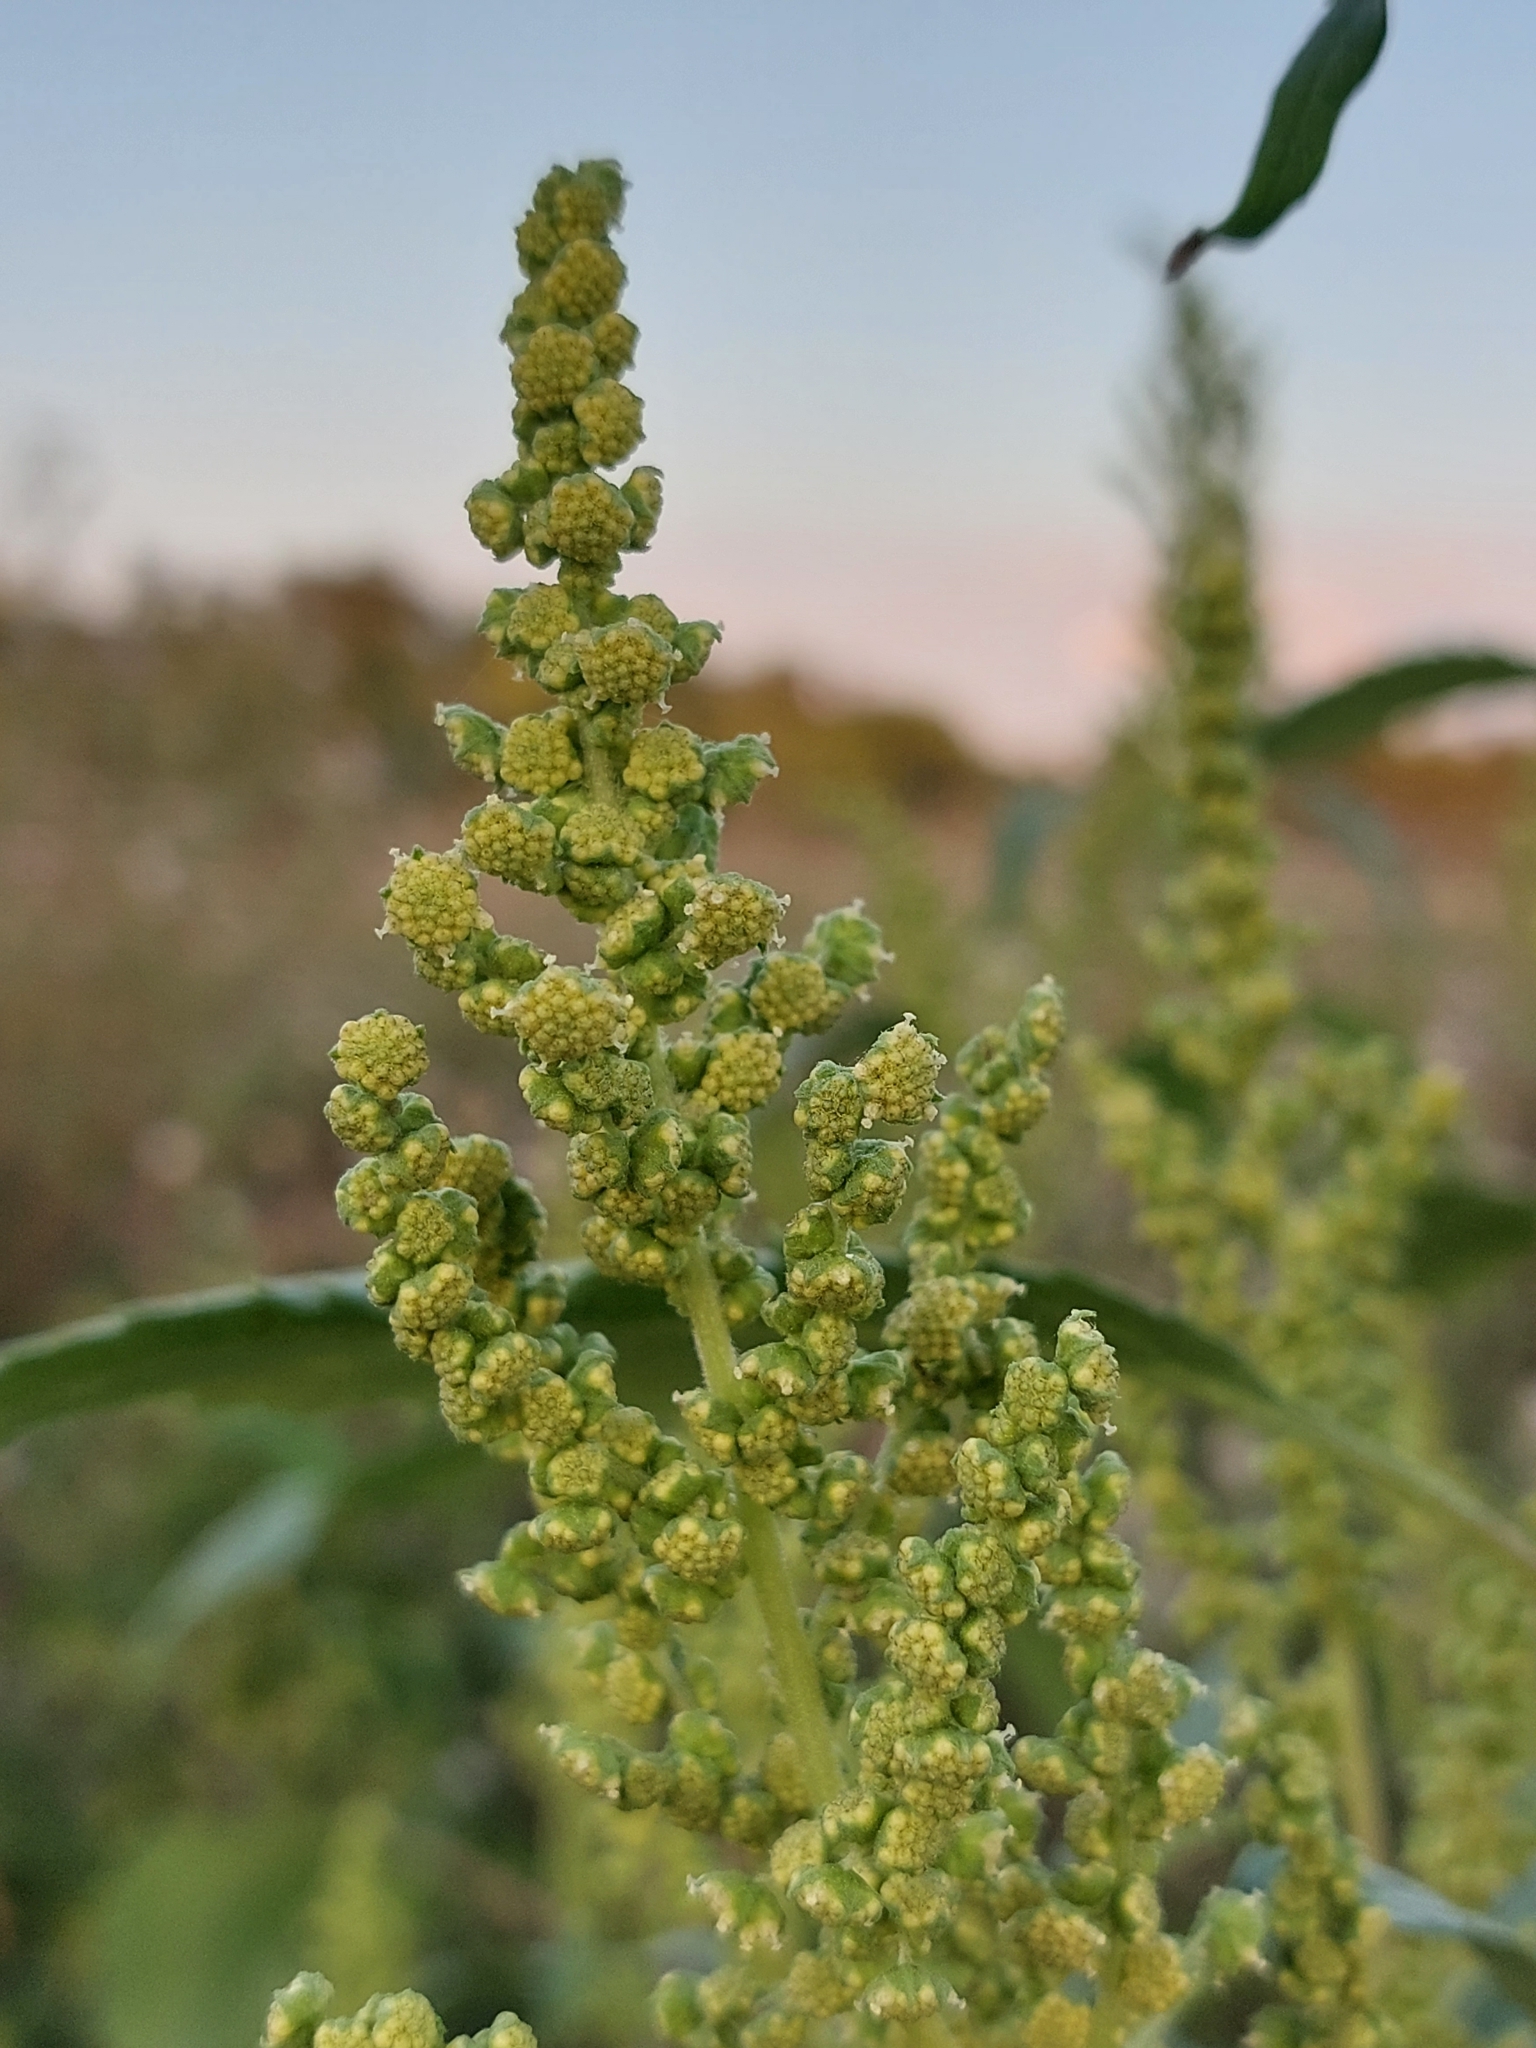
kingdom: Plantae
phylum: Tracheophyta
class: Magnoliopsida
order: Asterales
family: Asteraceae
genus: Cyclachaena
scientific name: Cyclachaena xanthiifolia
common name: Giant sumpweed
